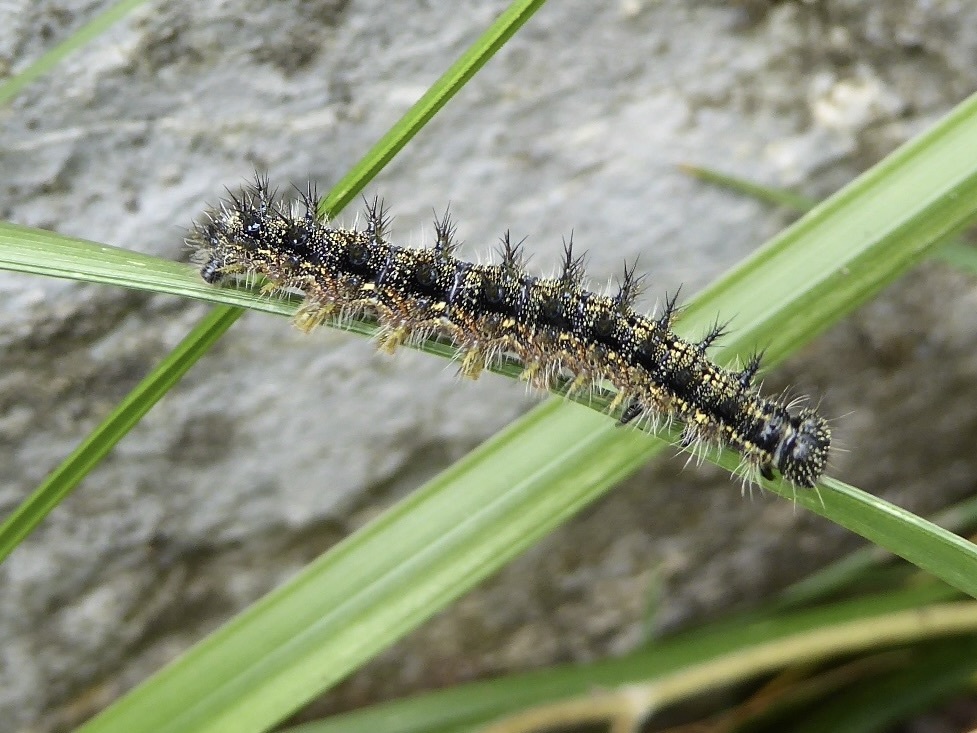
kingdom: Animalia
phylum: Arthropoda
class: Insecta
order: Lepidoptera
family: Nymphalidae
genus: Aglais
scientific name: Aglais urticae
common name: Small tortoiseshell
